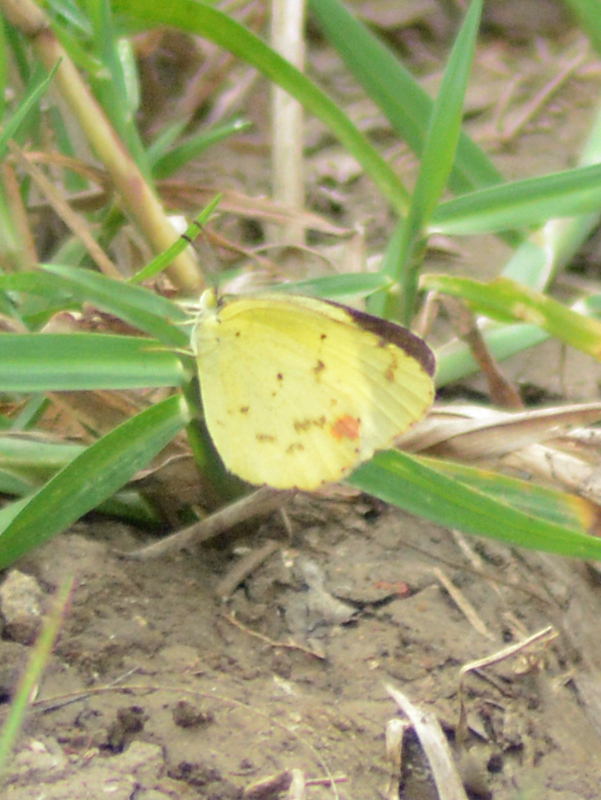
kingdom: Animalia
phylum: Arthropoda
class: Insecta
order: Lepidoptera
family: Pieridae
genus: Pyrisitia
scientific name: Pyrisitia lisa
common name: Little yellow
